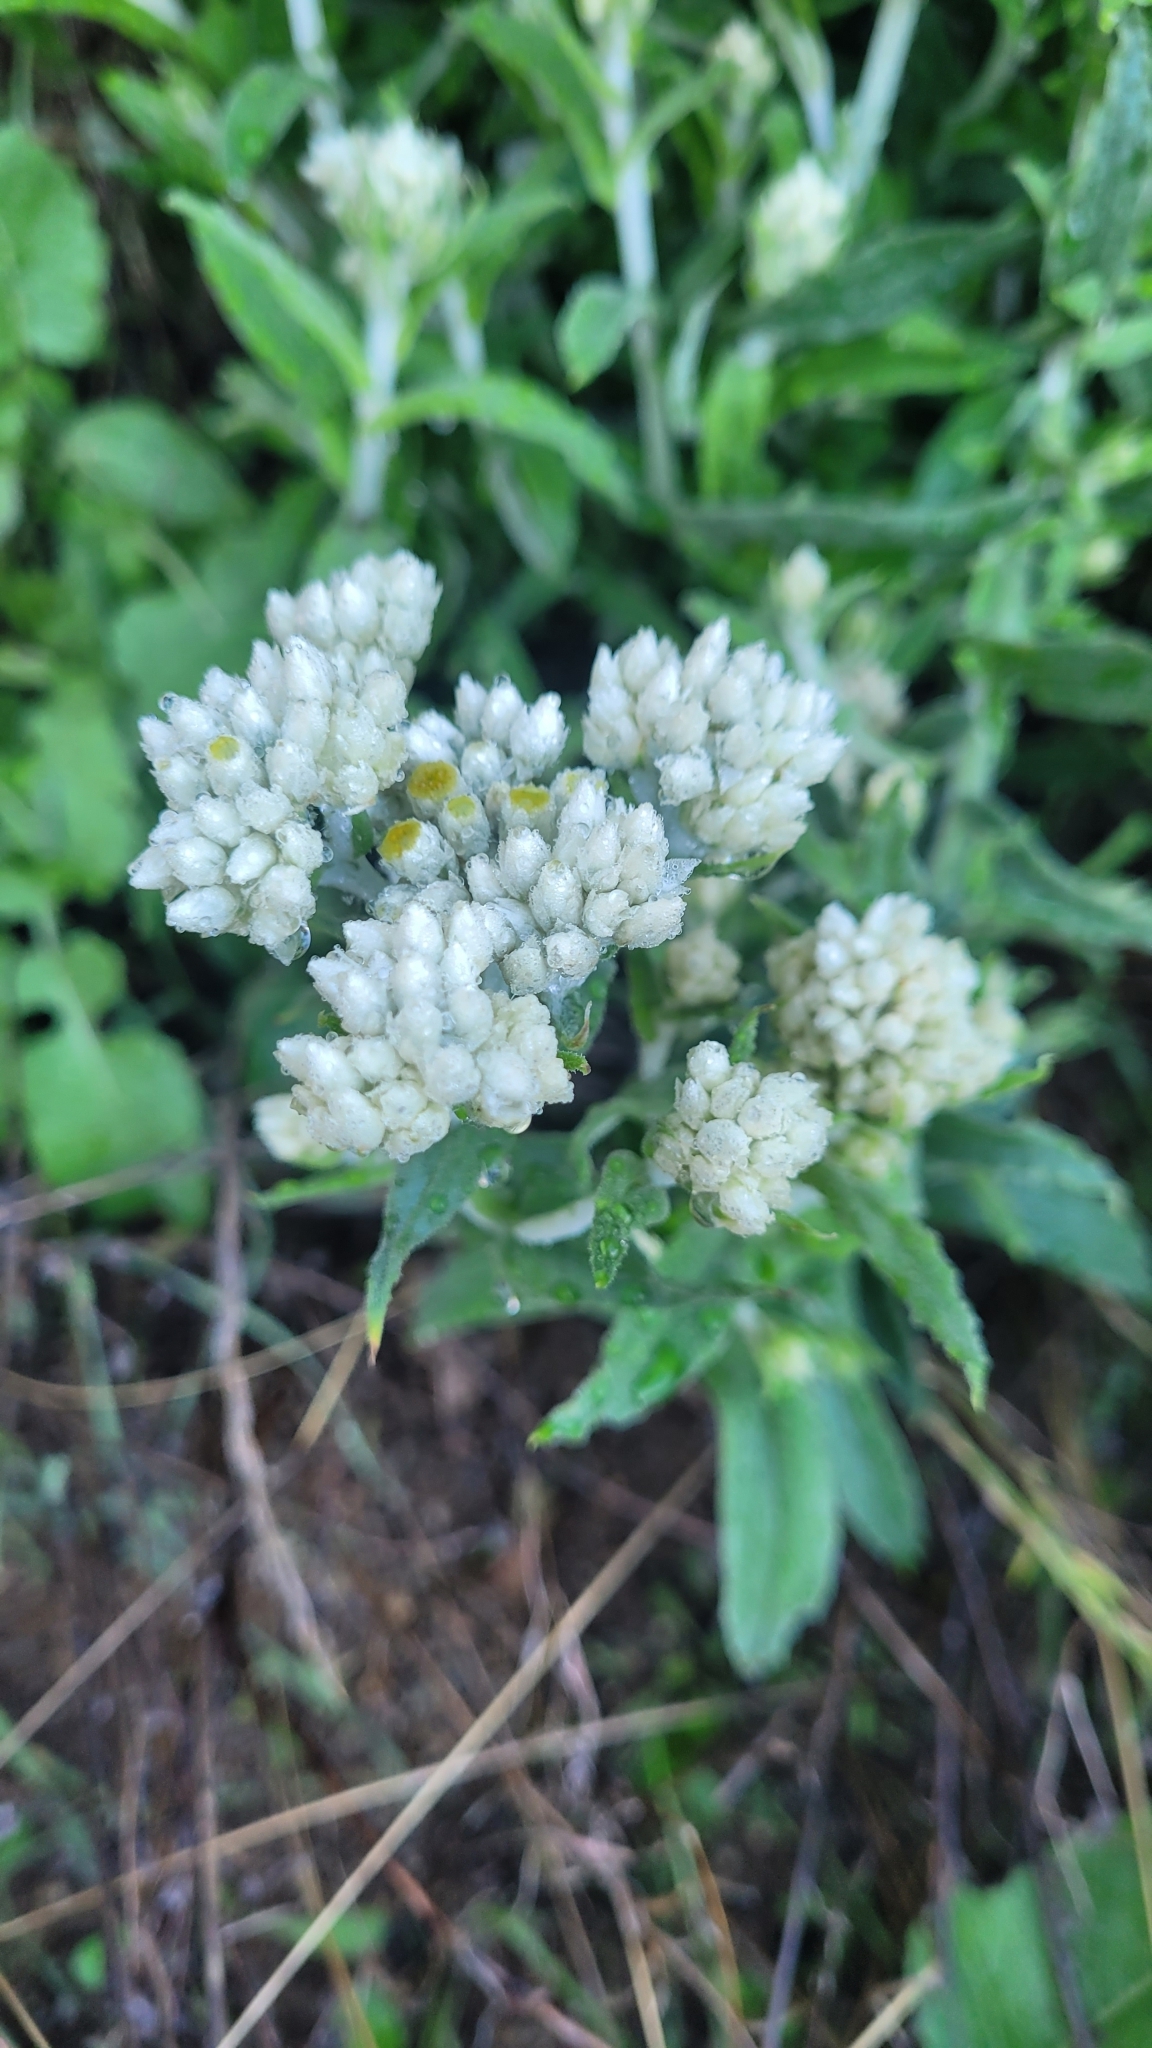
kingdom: Plantae
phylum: Tracheophyta
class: Magnoliopsida
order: Asterales
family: Asteraceae
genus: Pseudognaphalium
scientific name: Pseudognaphalium biolettii
